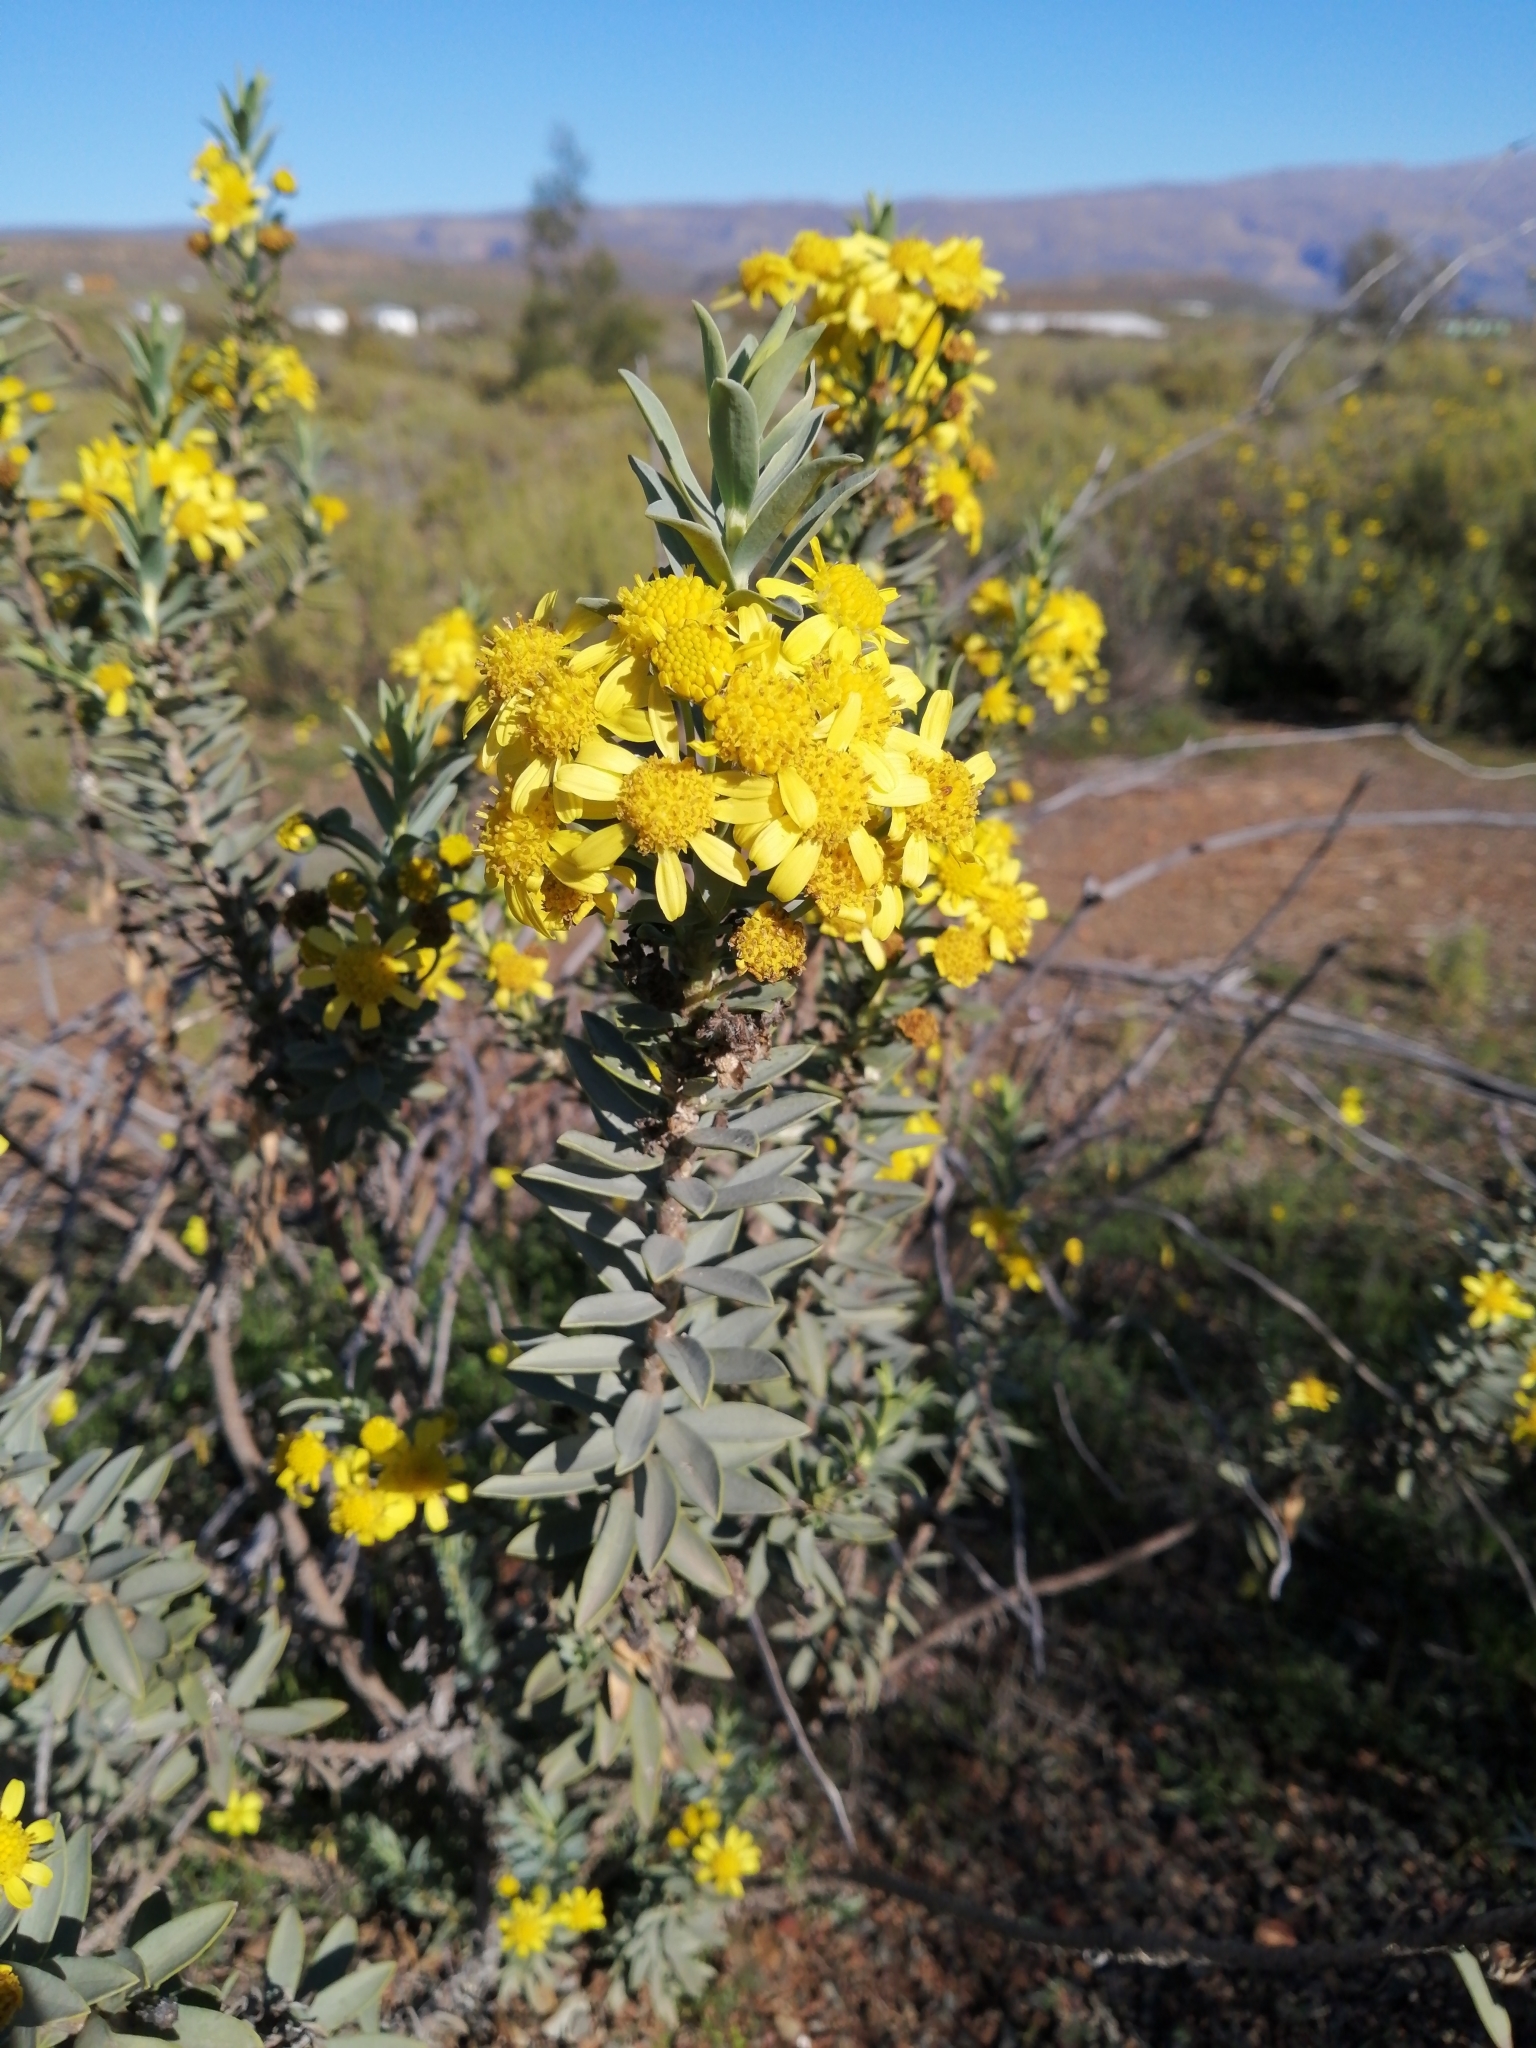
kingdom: Plantae
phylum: Tracheophyta
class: Magnoliopsida
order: Asterales
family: Asteraceae
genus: Euryops
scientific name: Euryops lateriflorus
